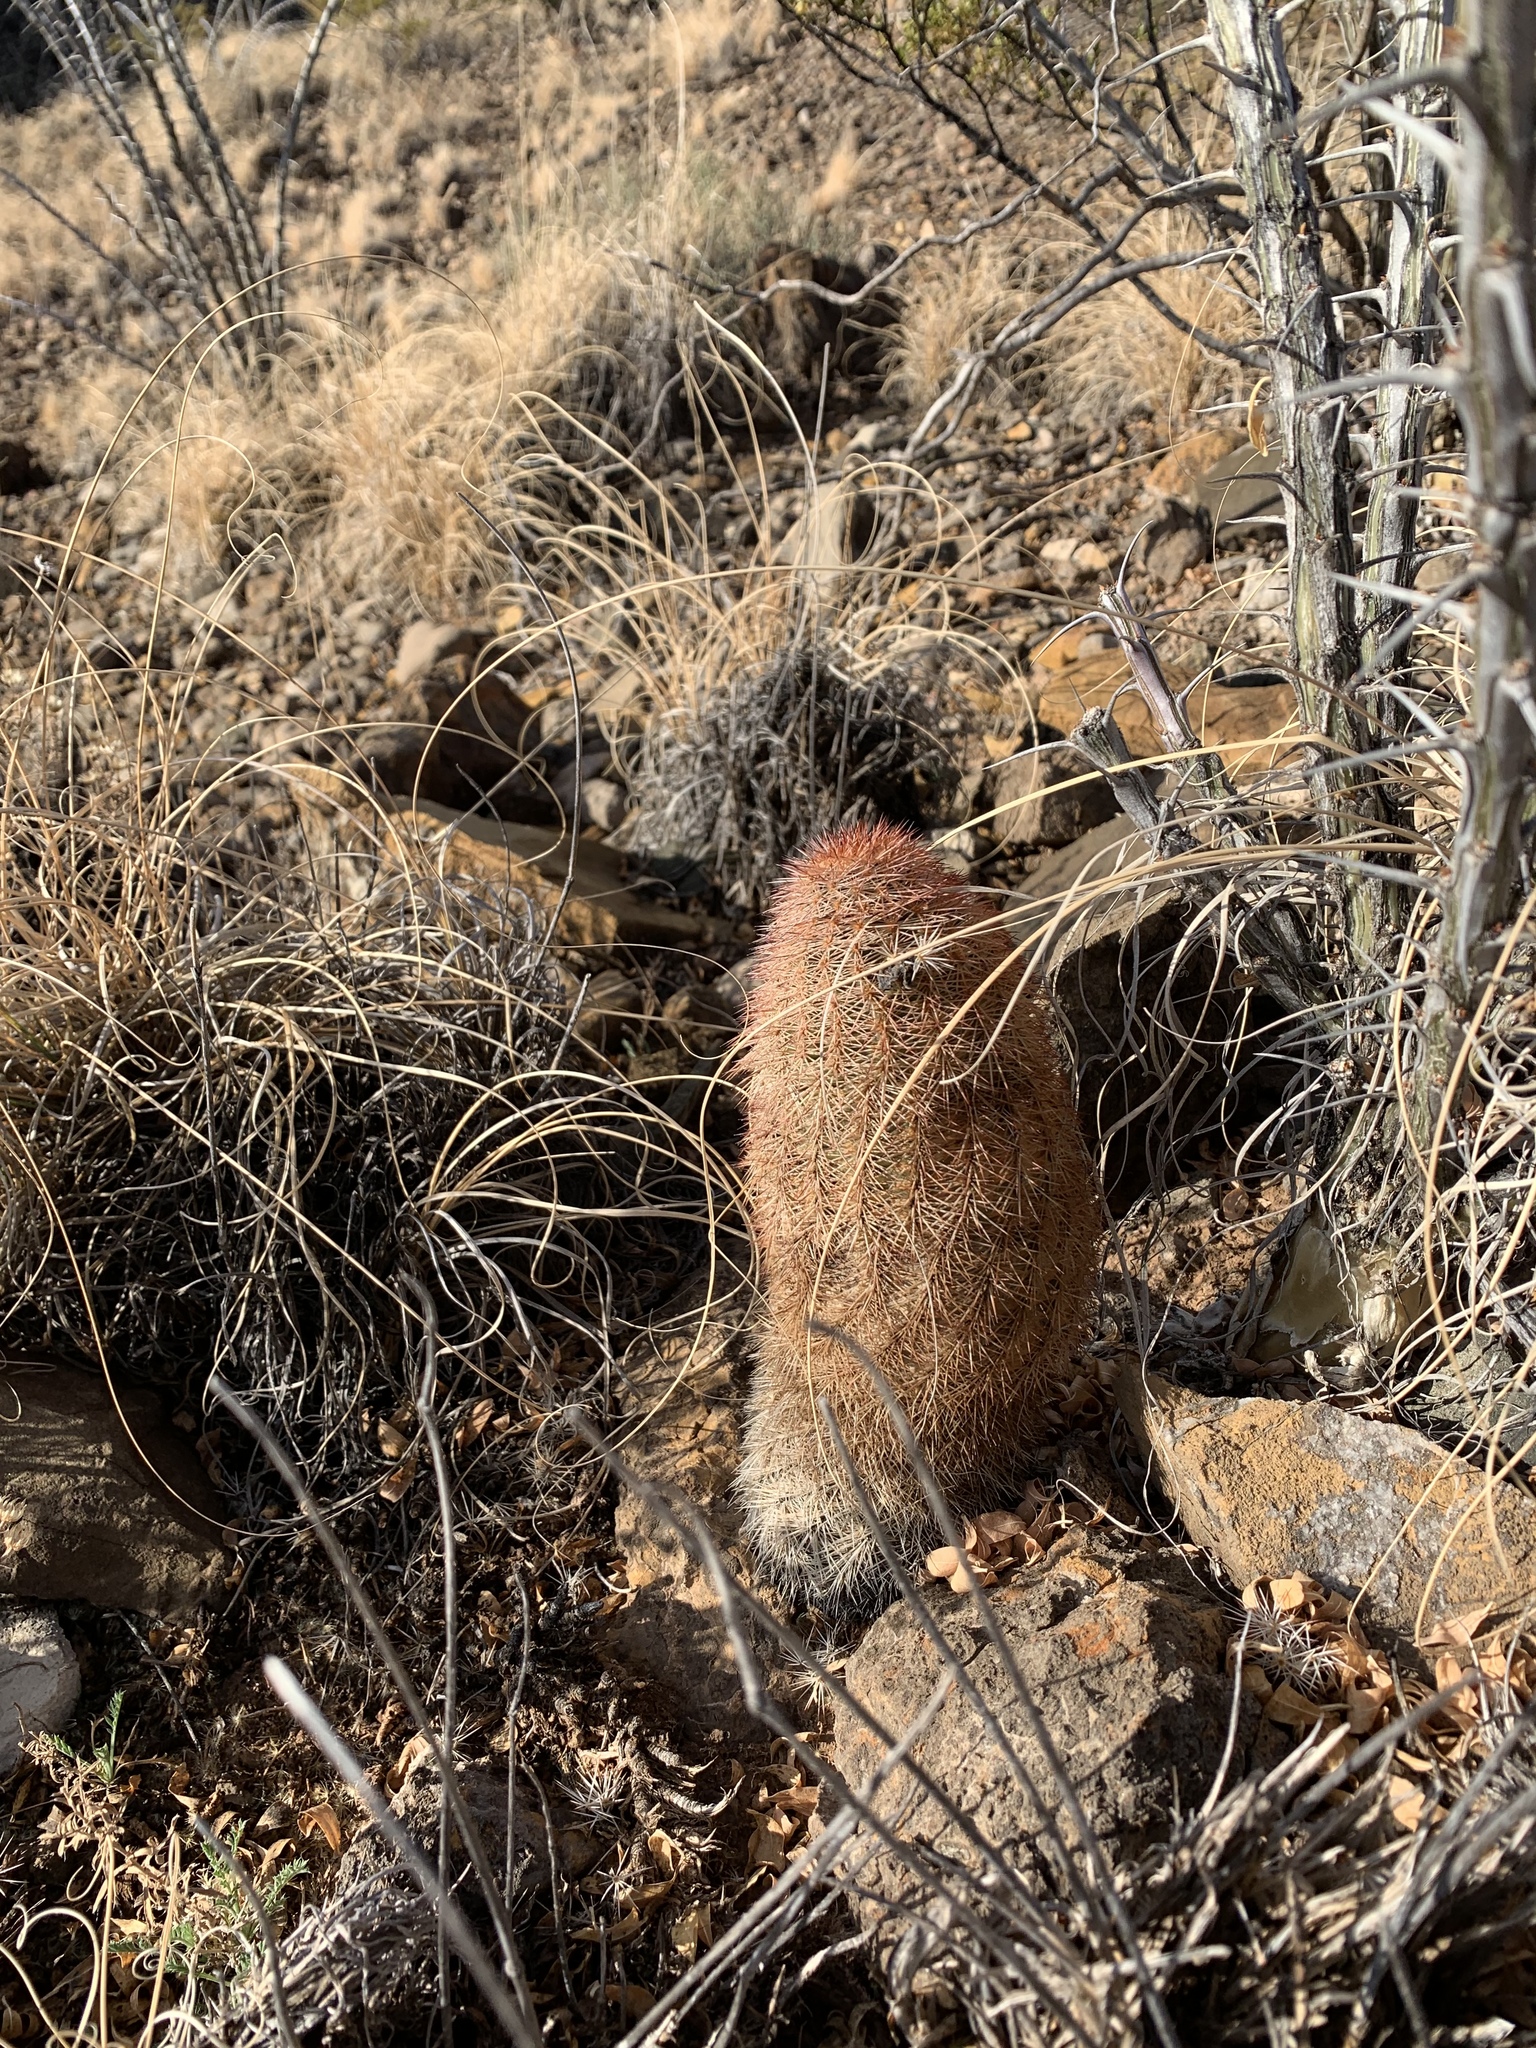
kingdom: Plantae
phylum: Tracheophyta
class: Magnoliopsida
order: Caryophyllales
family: Cactaceae
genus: Echinocereus
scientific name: Echinocereus dasyacanthus
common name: Spiny hedgehog cactus
